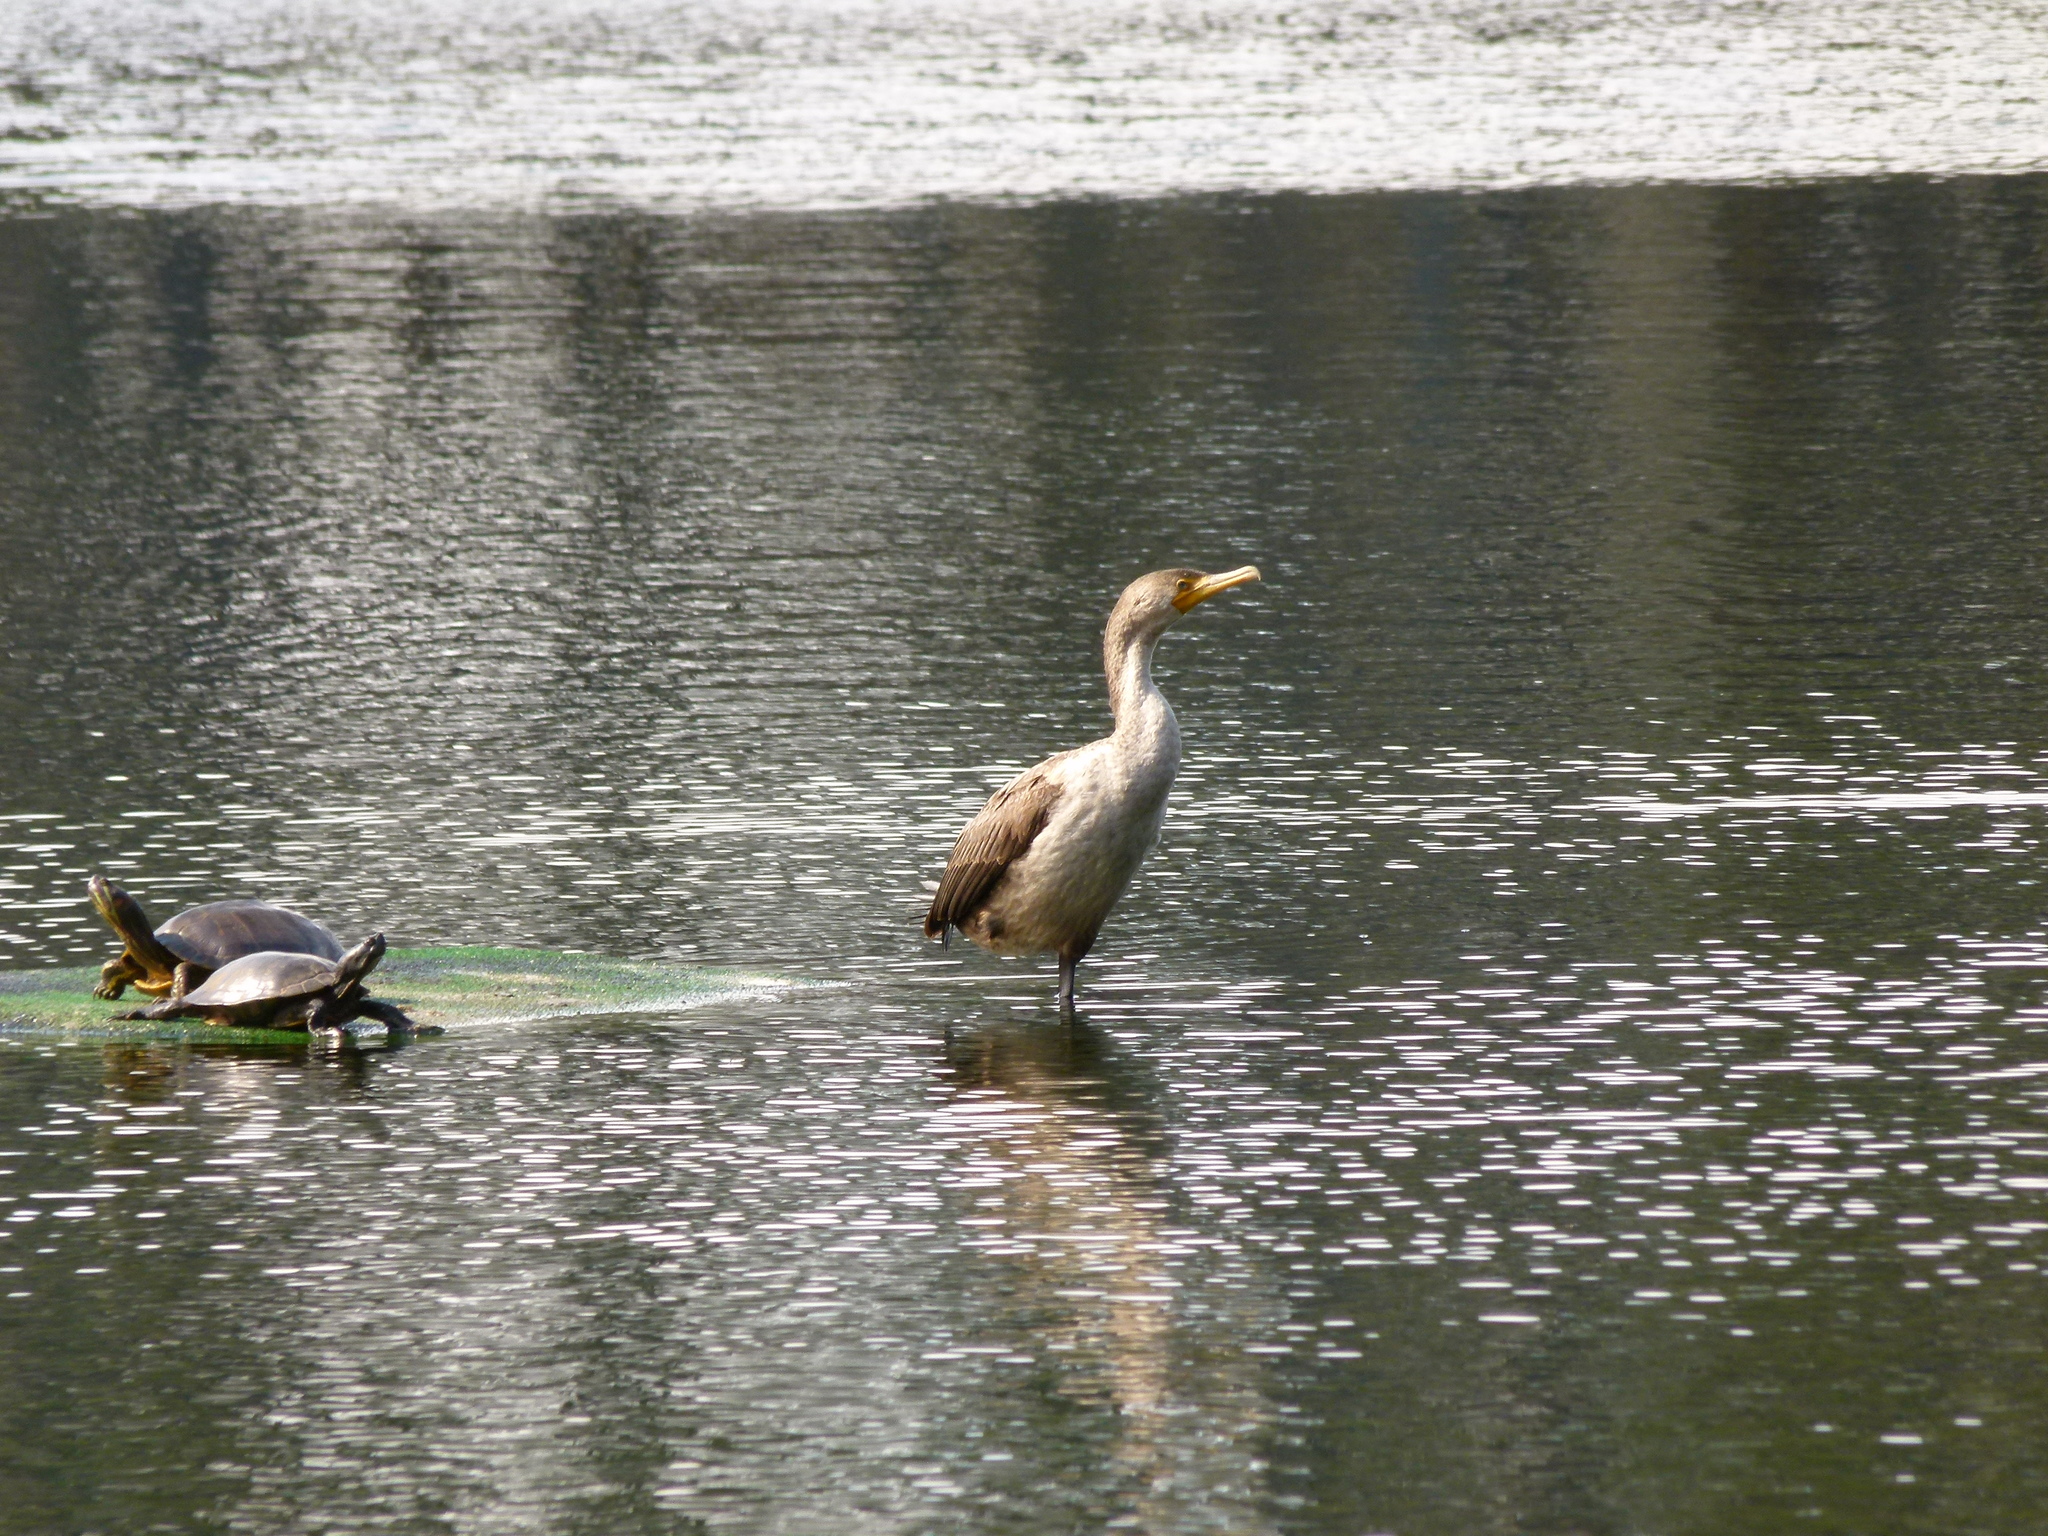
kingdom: Animalia
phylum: Chordata
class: Aves
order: Suliformes
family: Phalacrocoracidae
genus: Phalacrocorax
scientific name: Phalacrocorax auritus
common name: Double-crested cormorant
